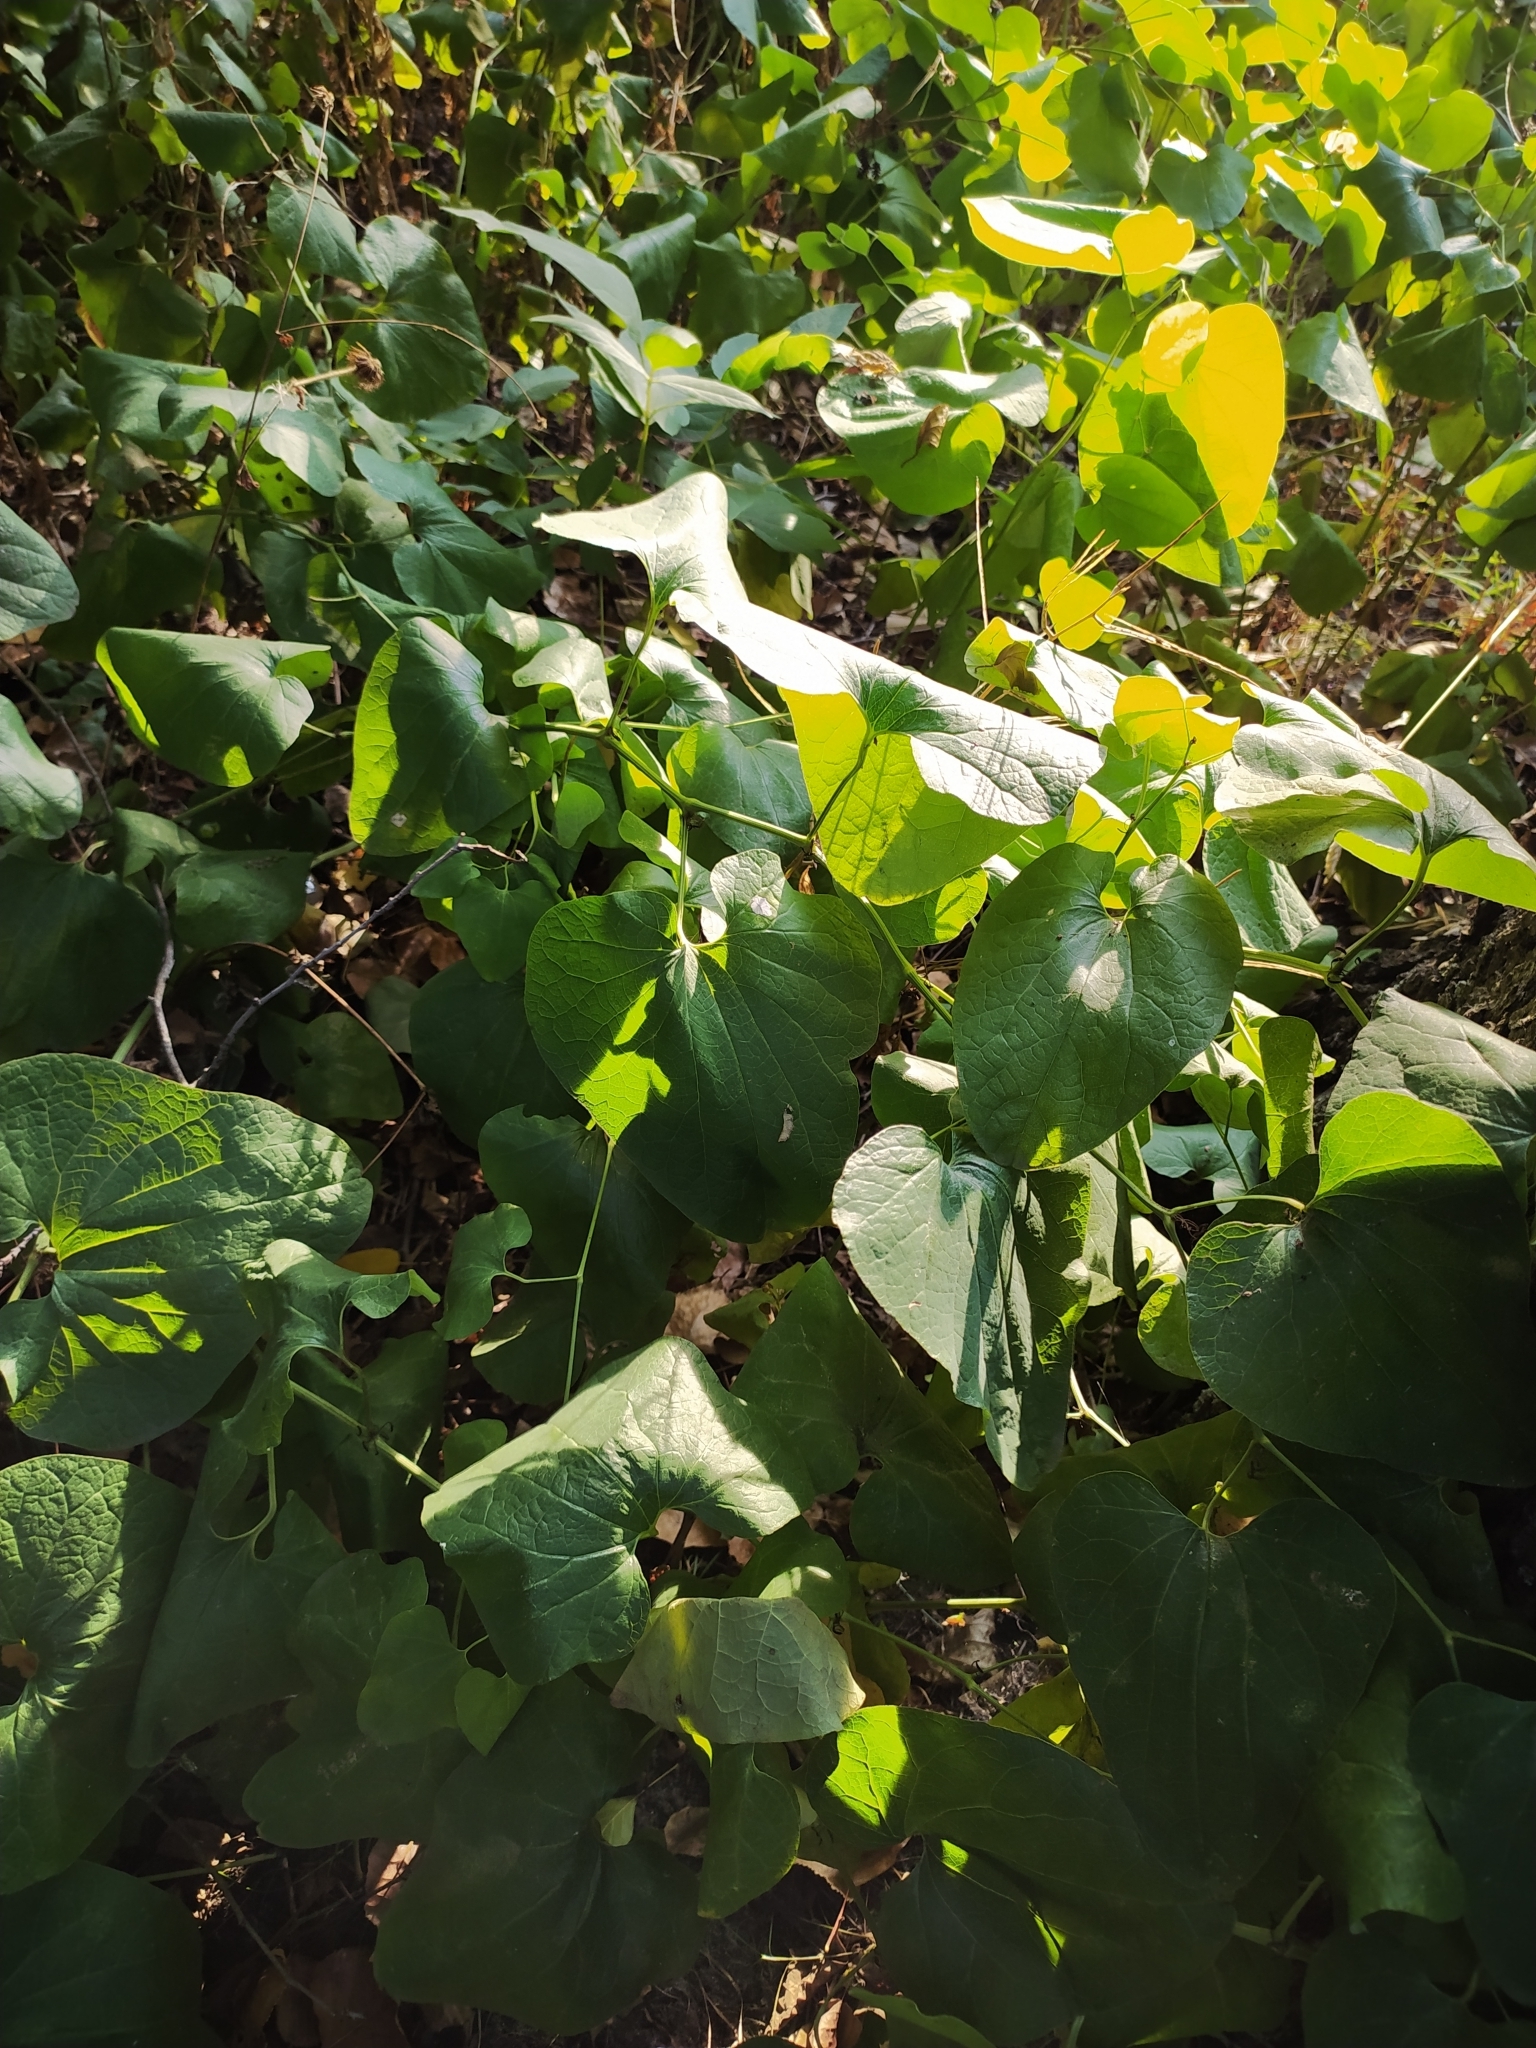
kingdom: Plantae
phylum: Tracheophyta
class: Magnoliopsida
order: Piperales
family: Aristolochiaceae
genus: Aristolochia
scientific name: Aristolochia clematitis
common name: Birthwort
